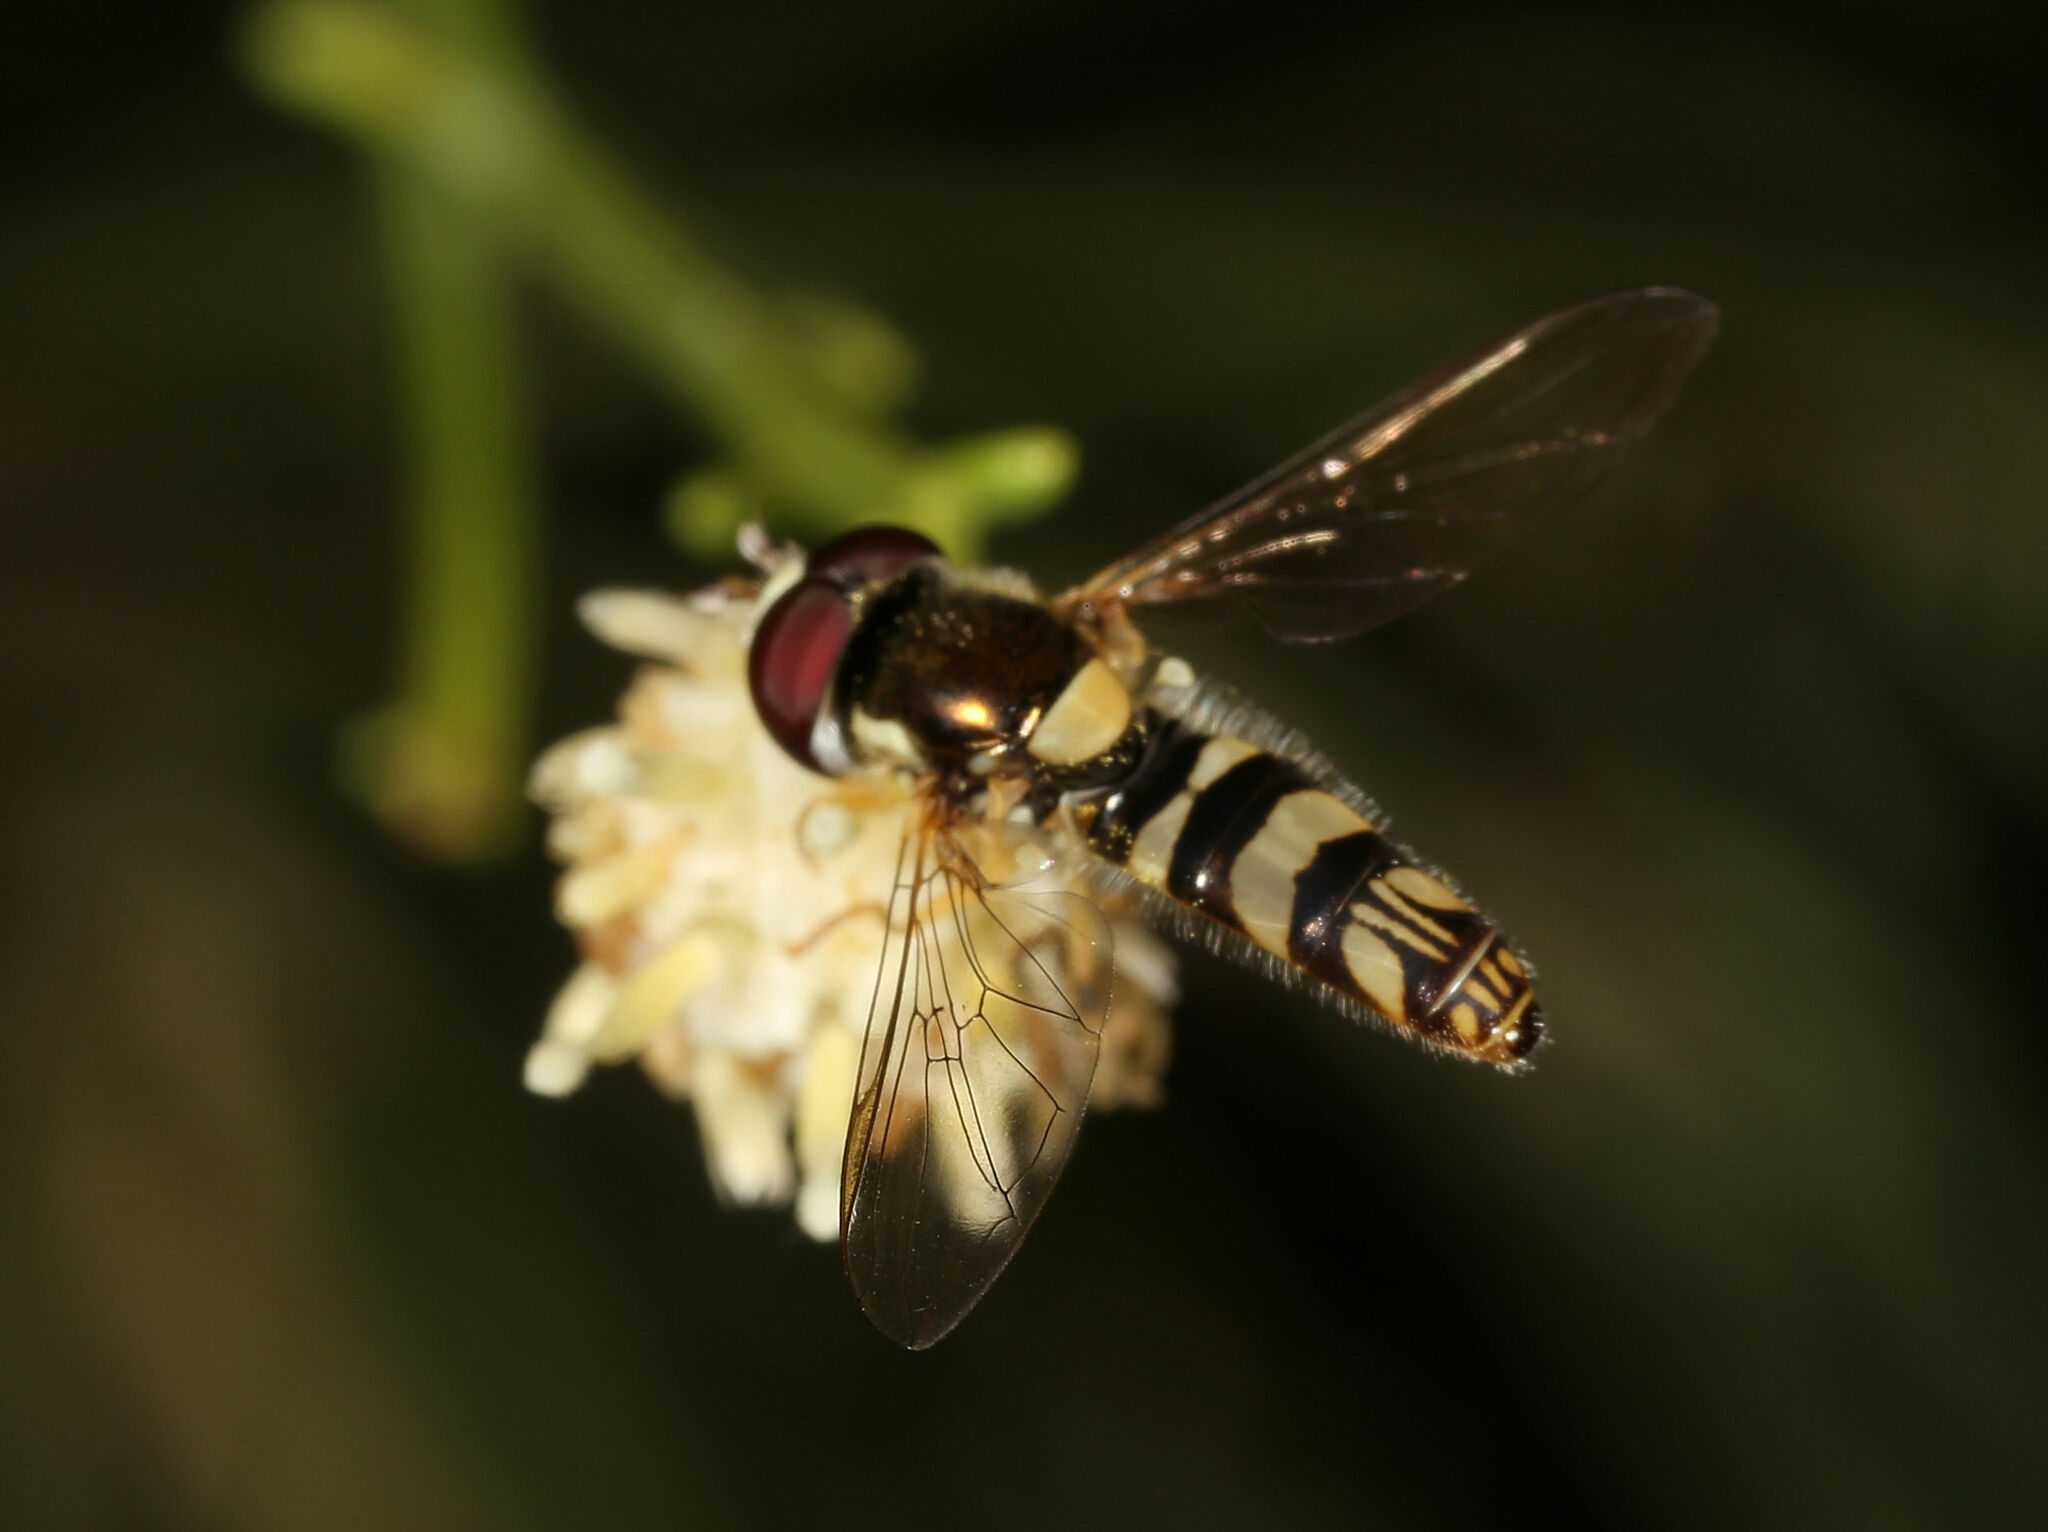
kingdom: Animalia
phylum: Arthropoda
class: Insecta
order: Diptera
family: Syrphidae
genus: Allograpta
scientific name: Allograpta exotica
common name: Syrphid fly
